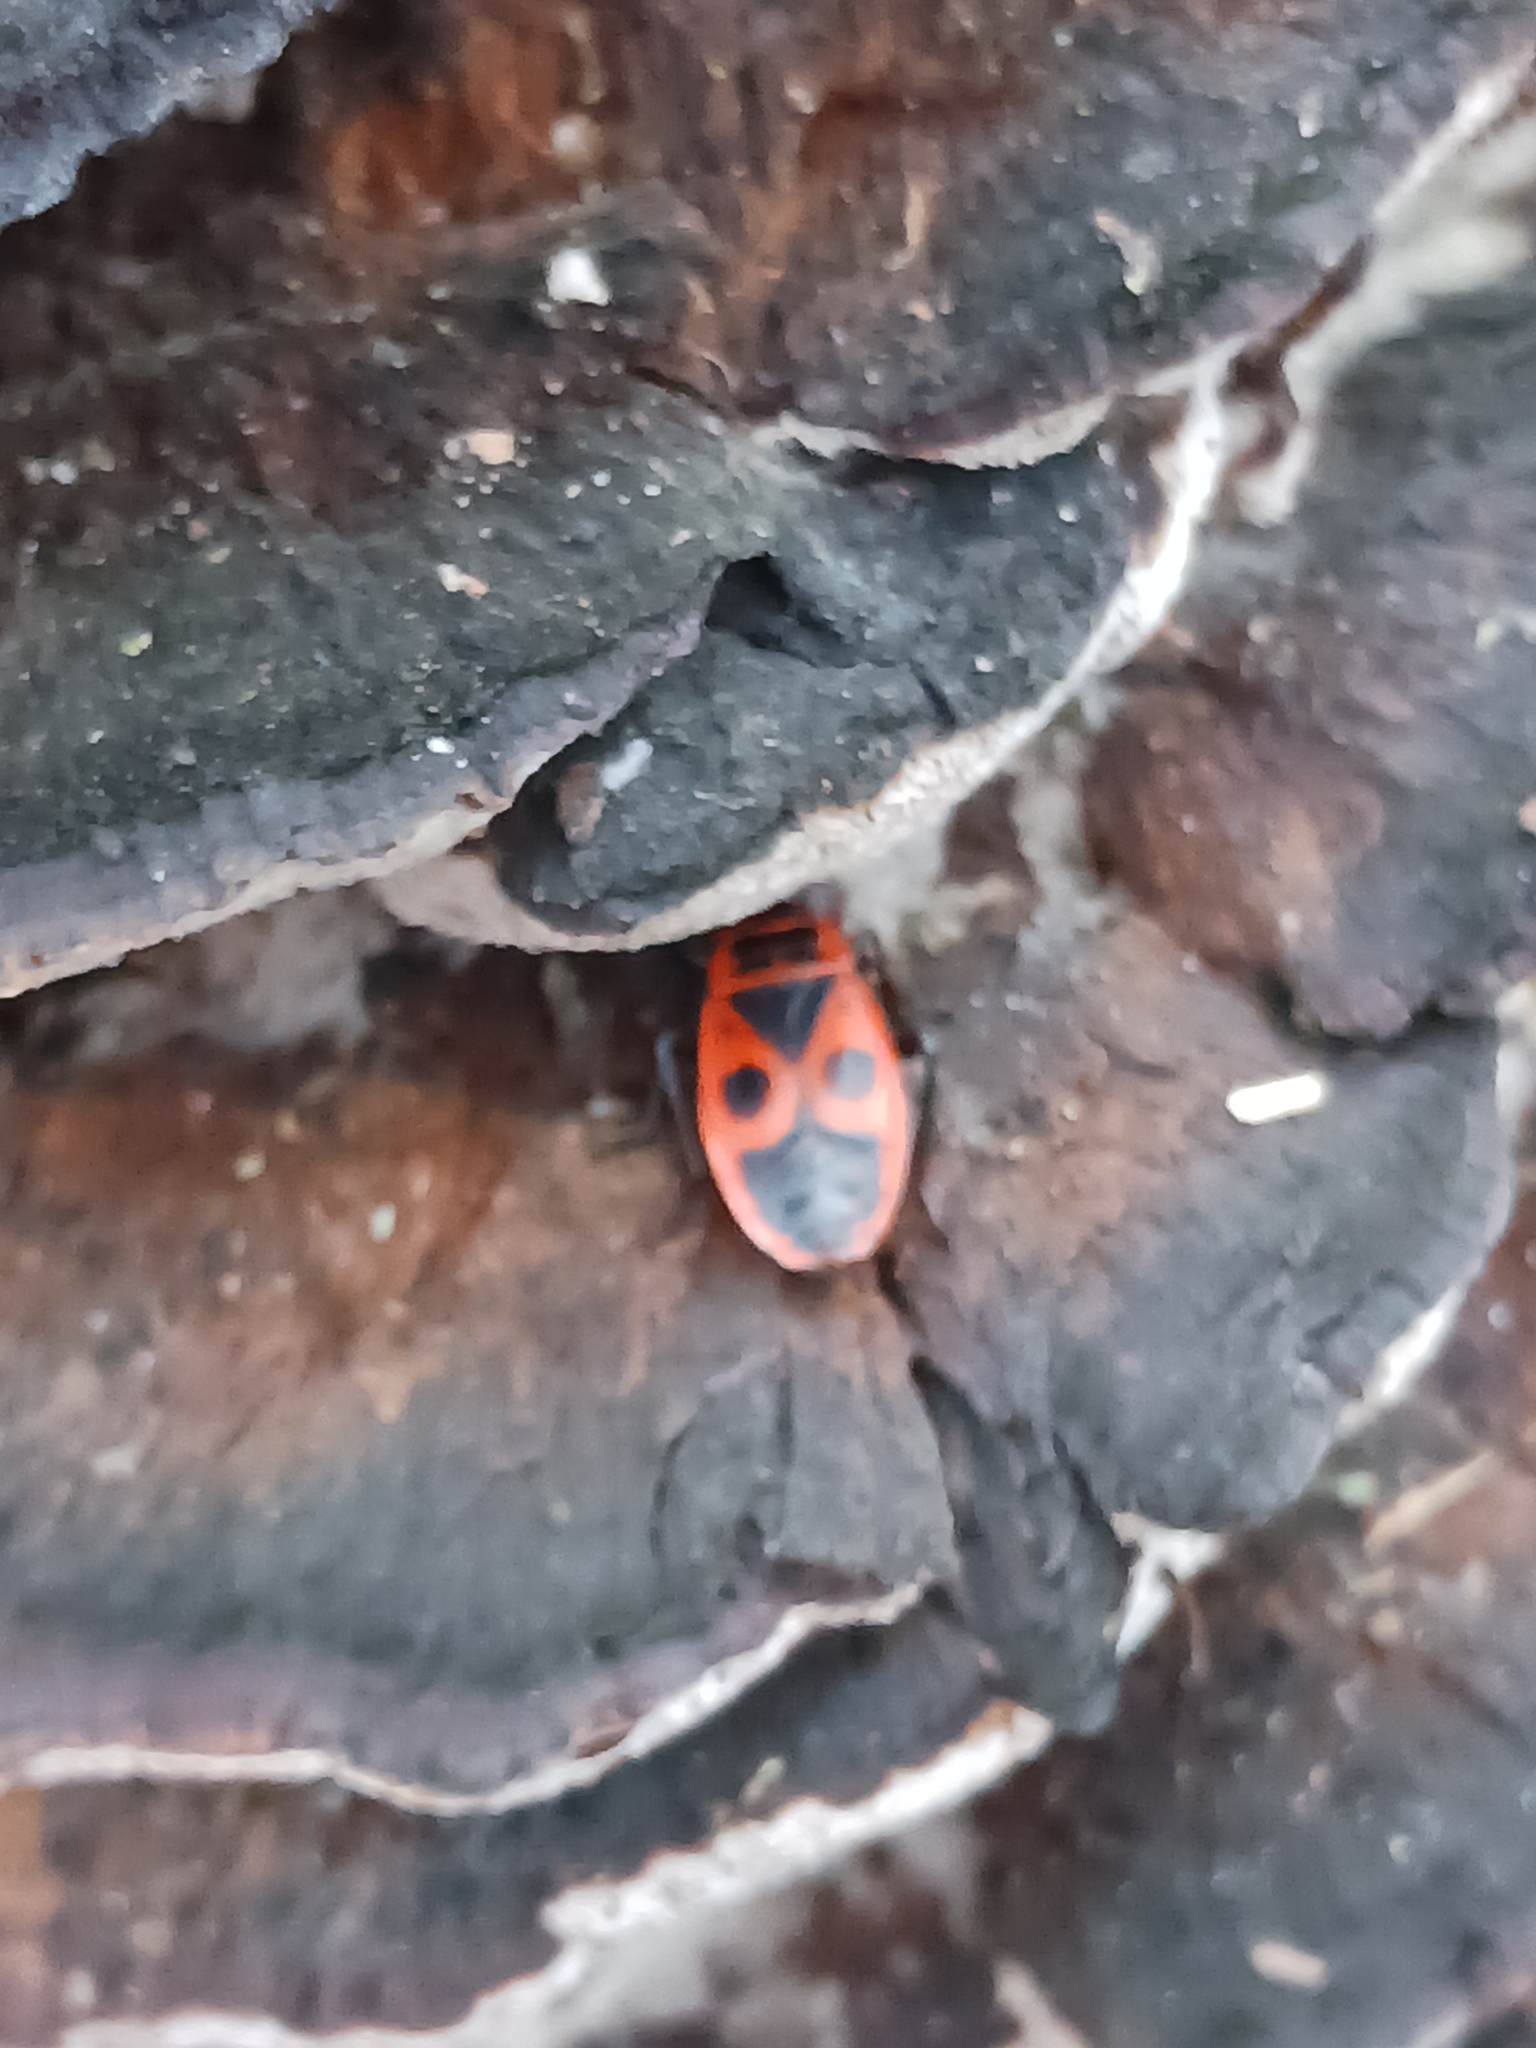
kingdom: Animalia
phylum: Arthropoda
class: Insecta
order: Hemiptera
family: Pyrrhocoridae
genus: Pyrrhocoris
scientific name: Pyrrhocoris apterus
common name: Firebug
